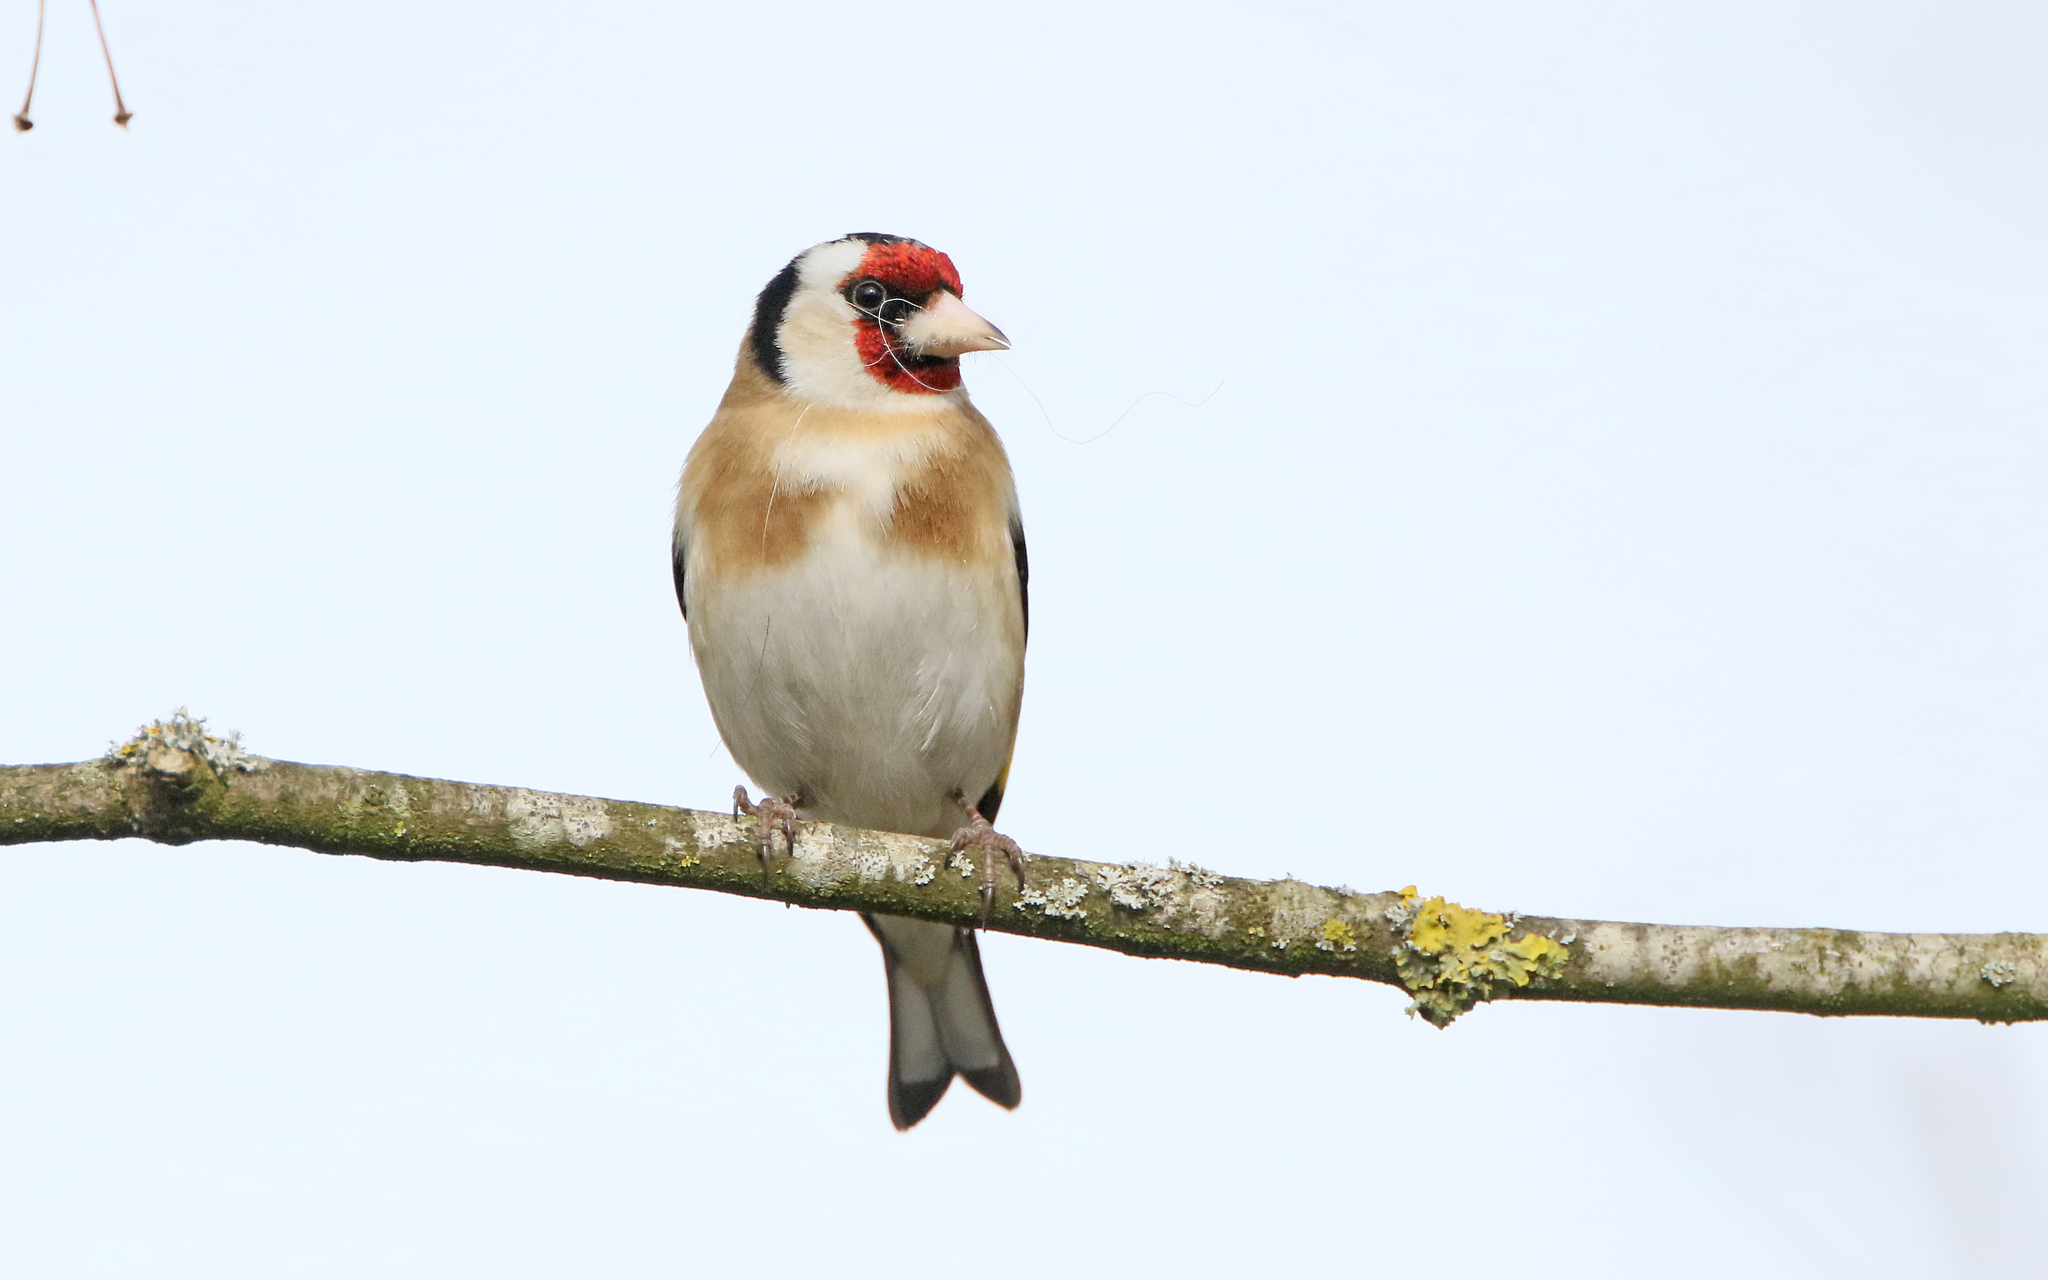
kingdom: Animalia
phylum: Chordata
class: Aves
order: Passeriformes
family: Fringillidae
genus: Carduelis
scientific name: Carduelis carduelis
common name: European goldfinch
